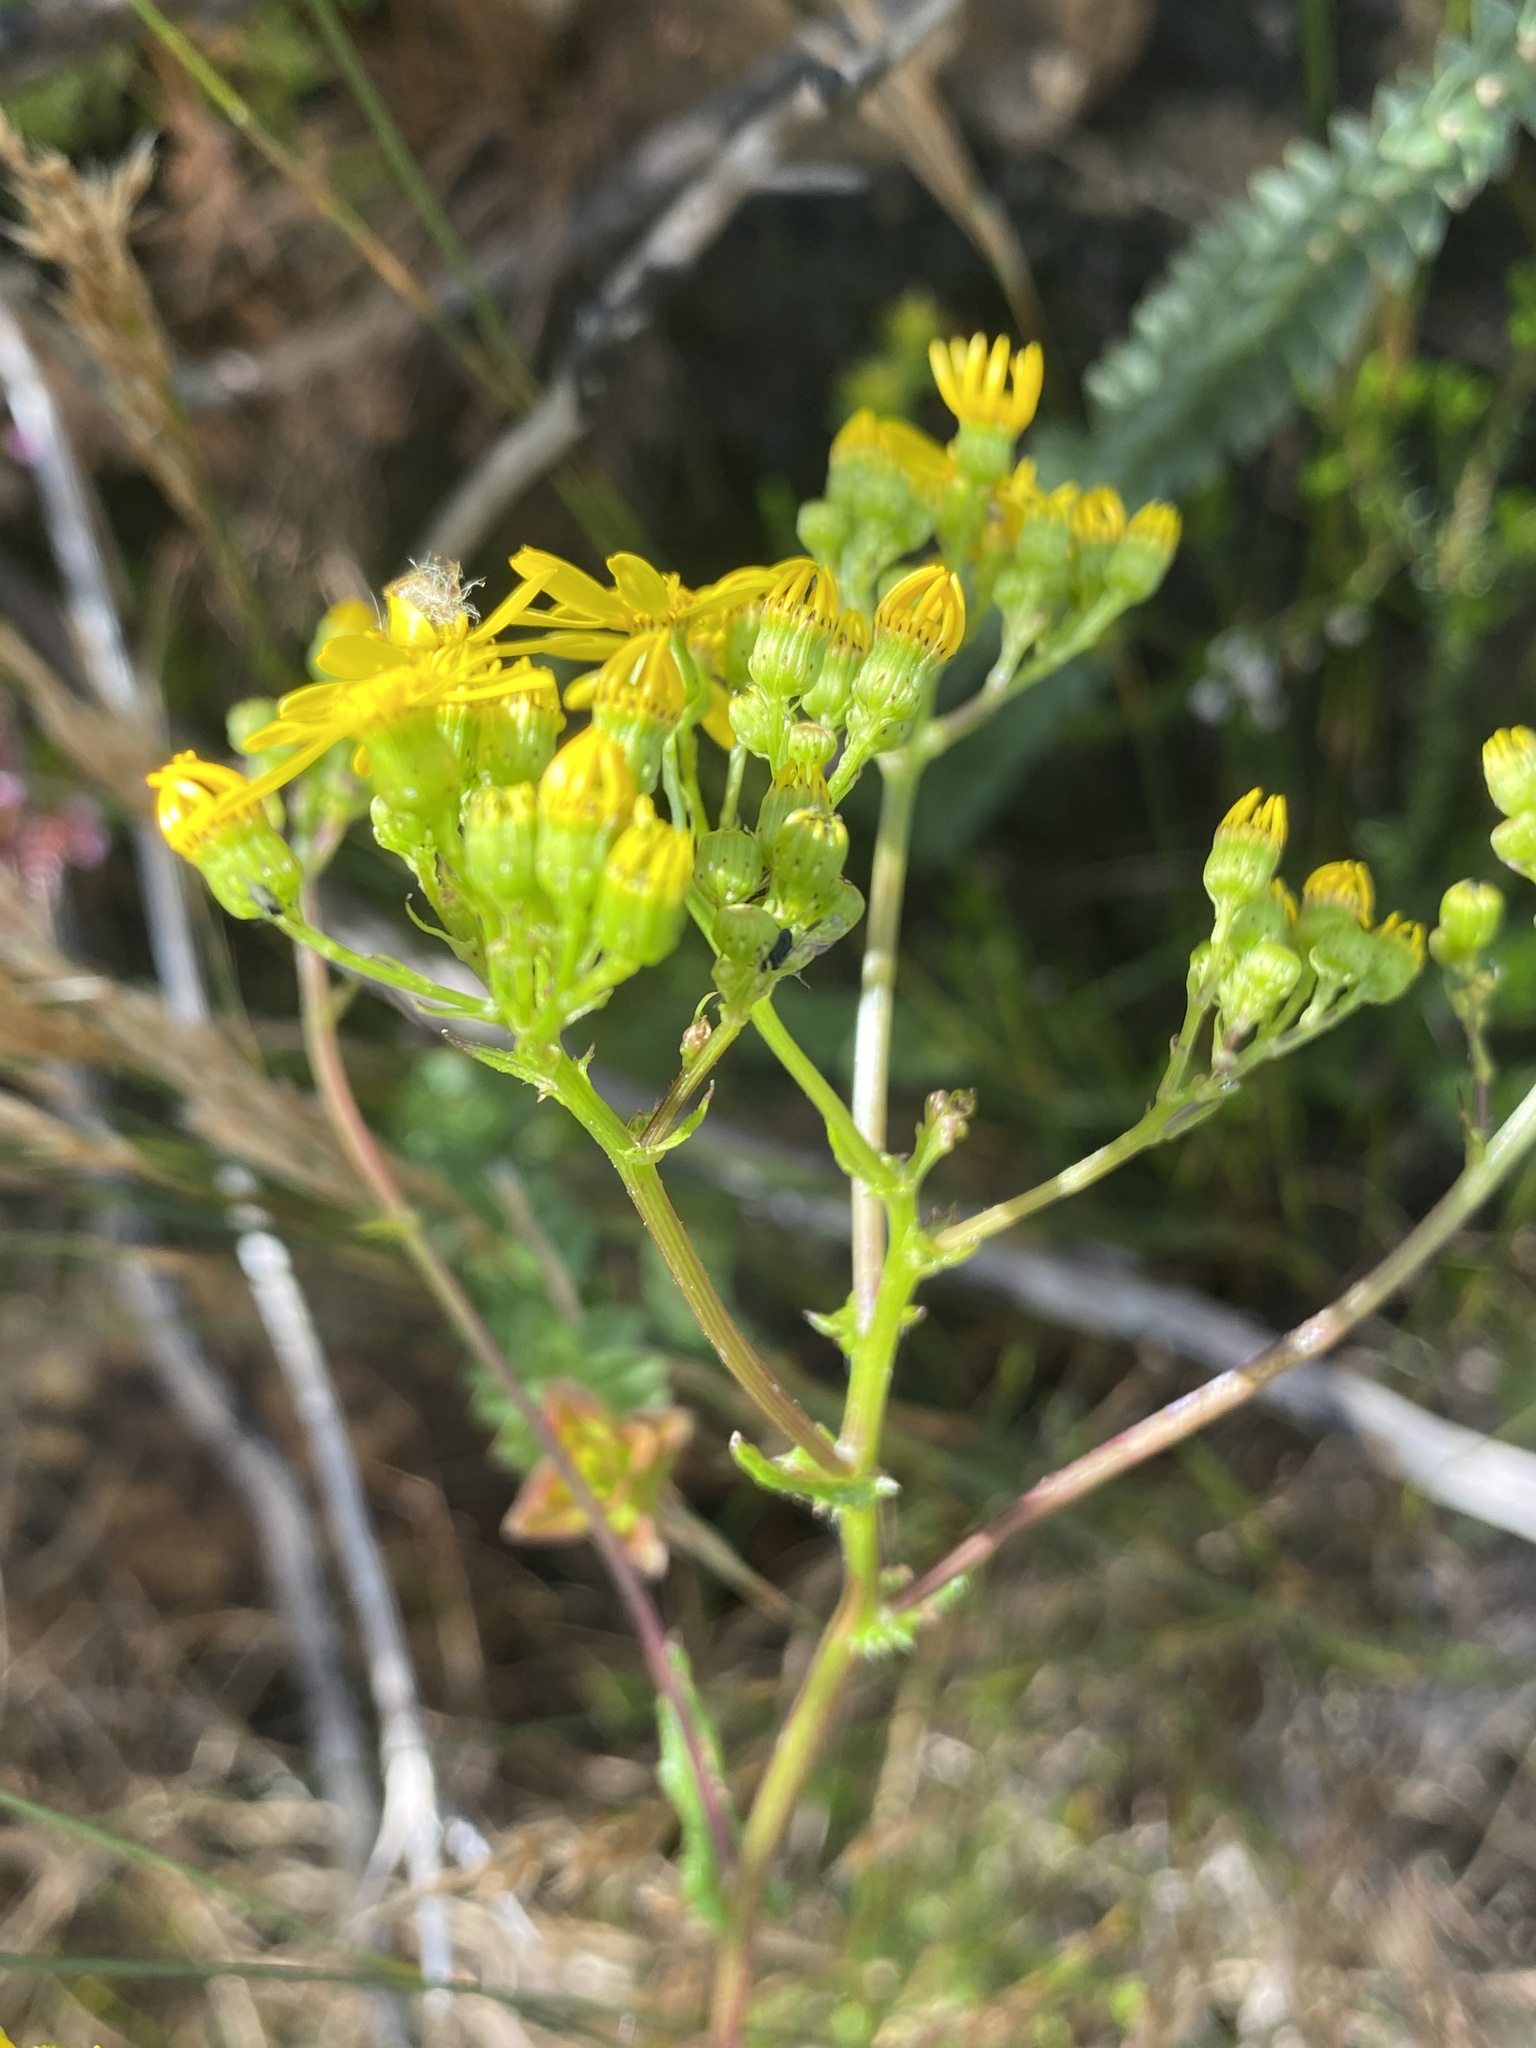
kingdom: Plantae
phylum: Tracheophyta
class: Magnoliopsida
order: Asterales
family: Asteraceae
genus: Senecio
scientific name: Senecio variifolius
